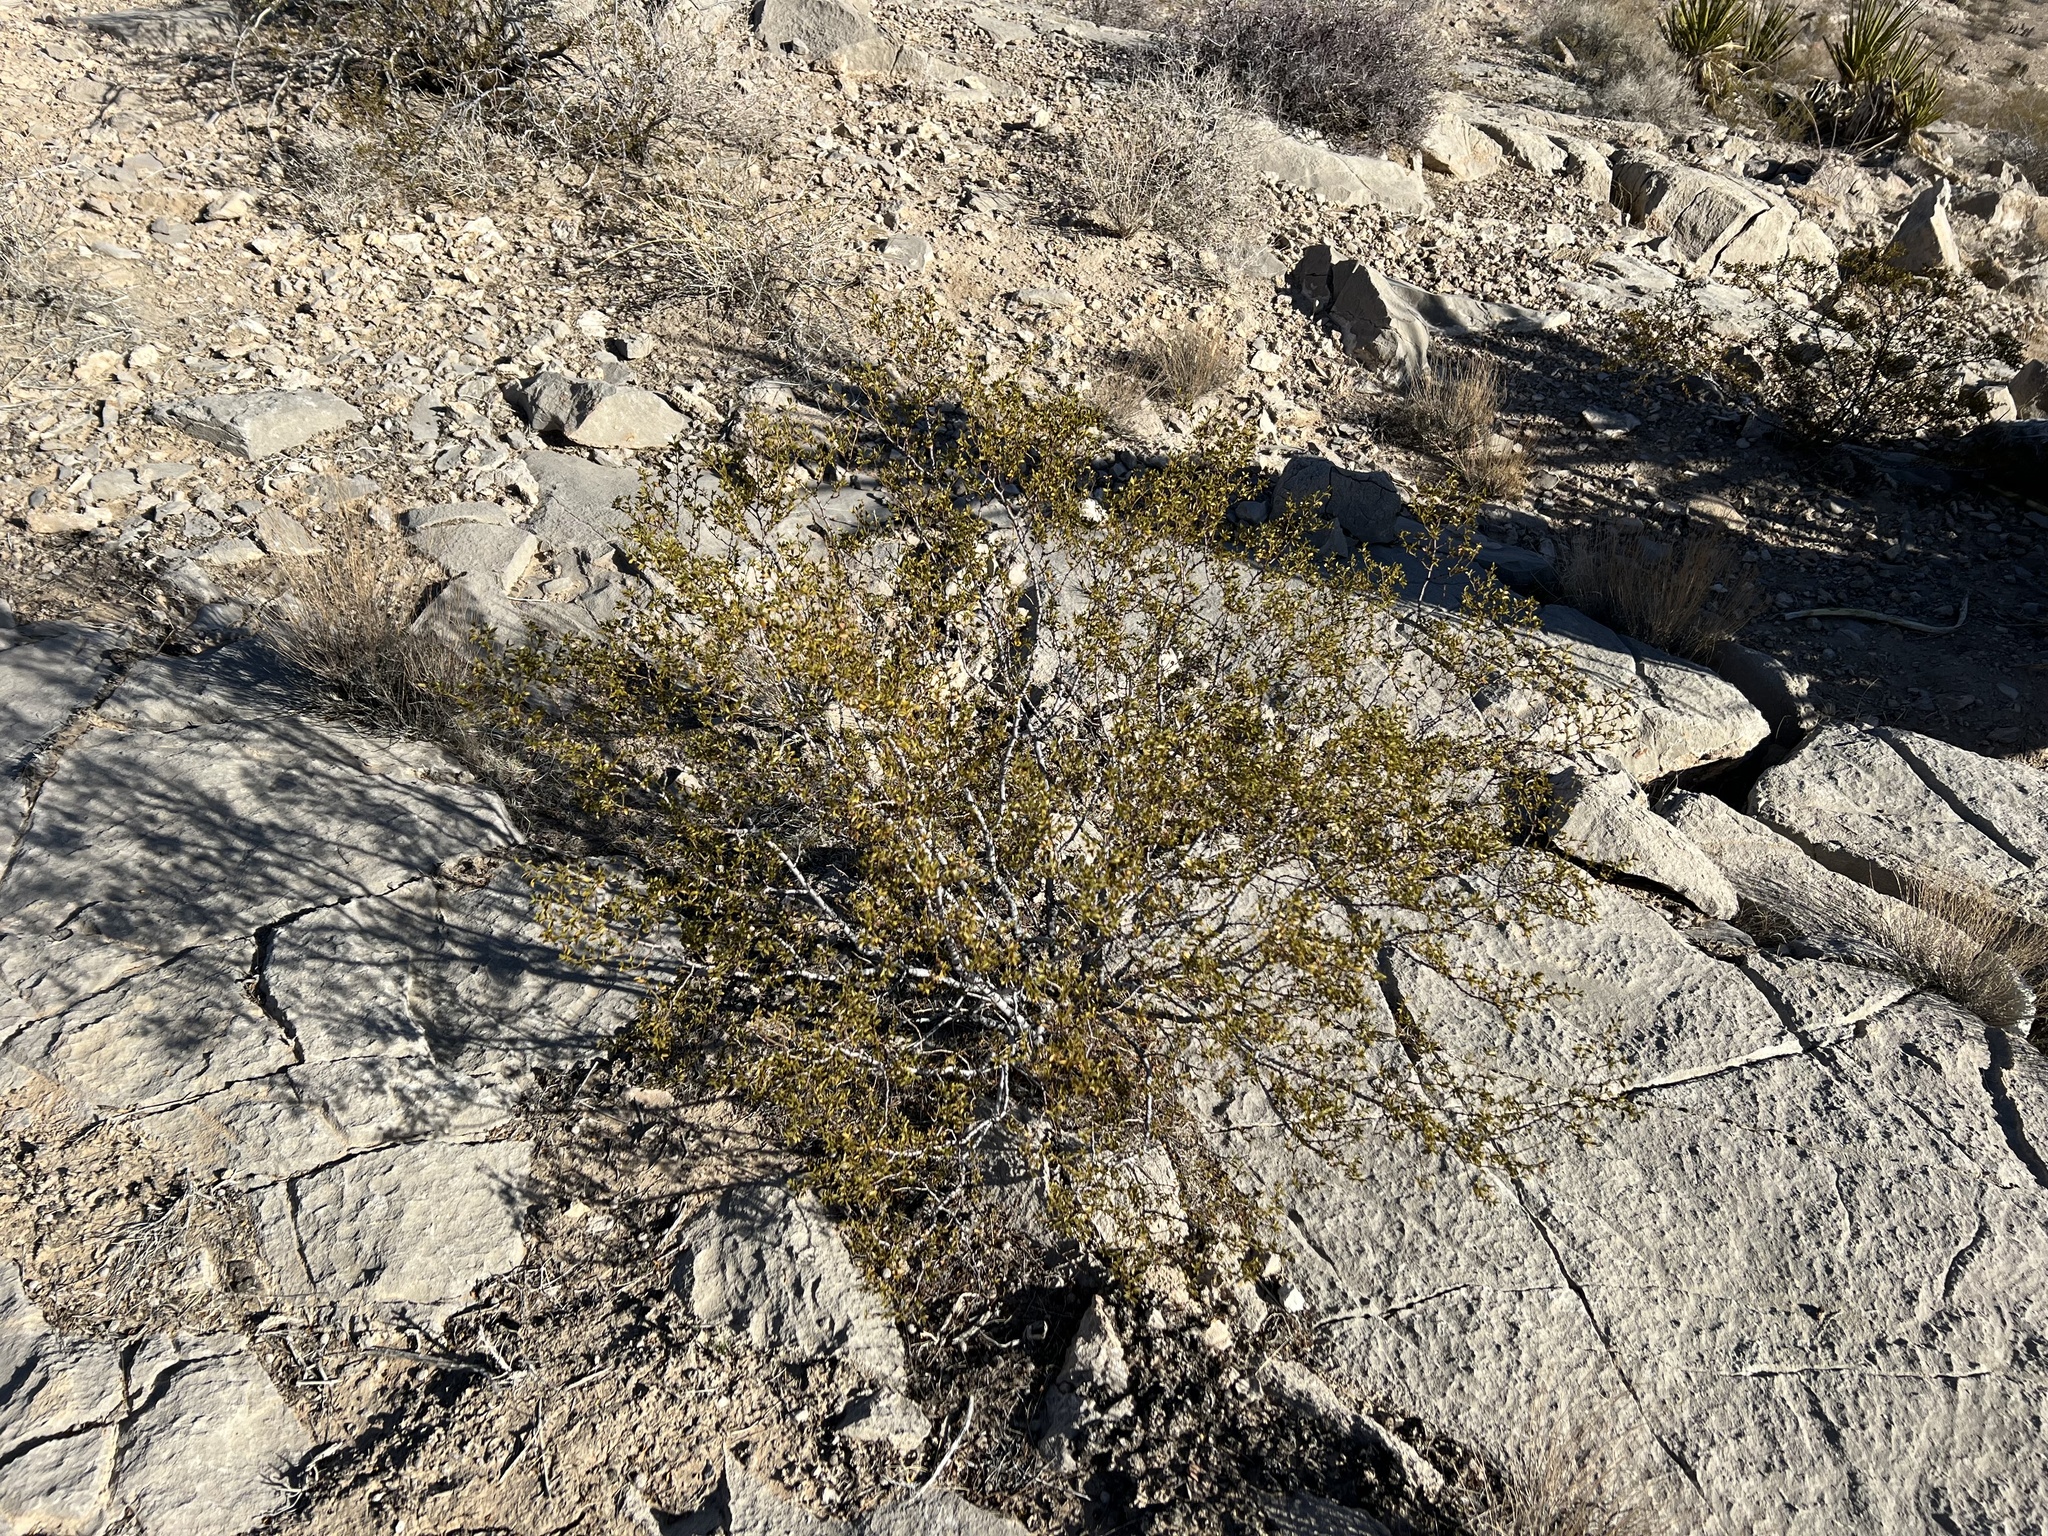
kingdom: Plantae
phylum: Tracheophyta
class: Magnoliopsida
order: Zygophyllales
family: Zygophyllaceae
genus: Larrea
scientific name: Larrea tridentata
